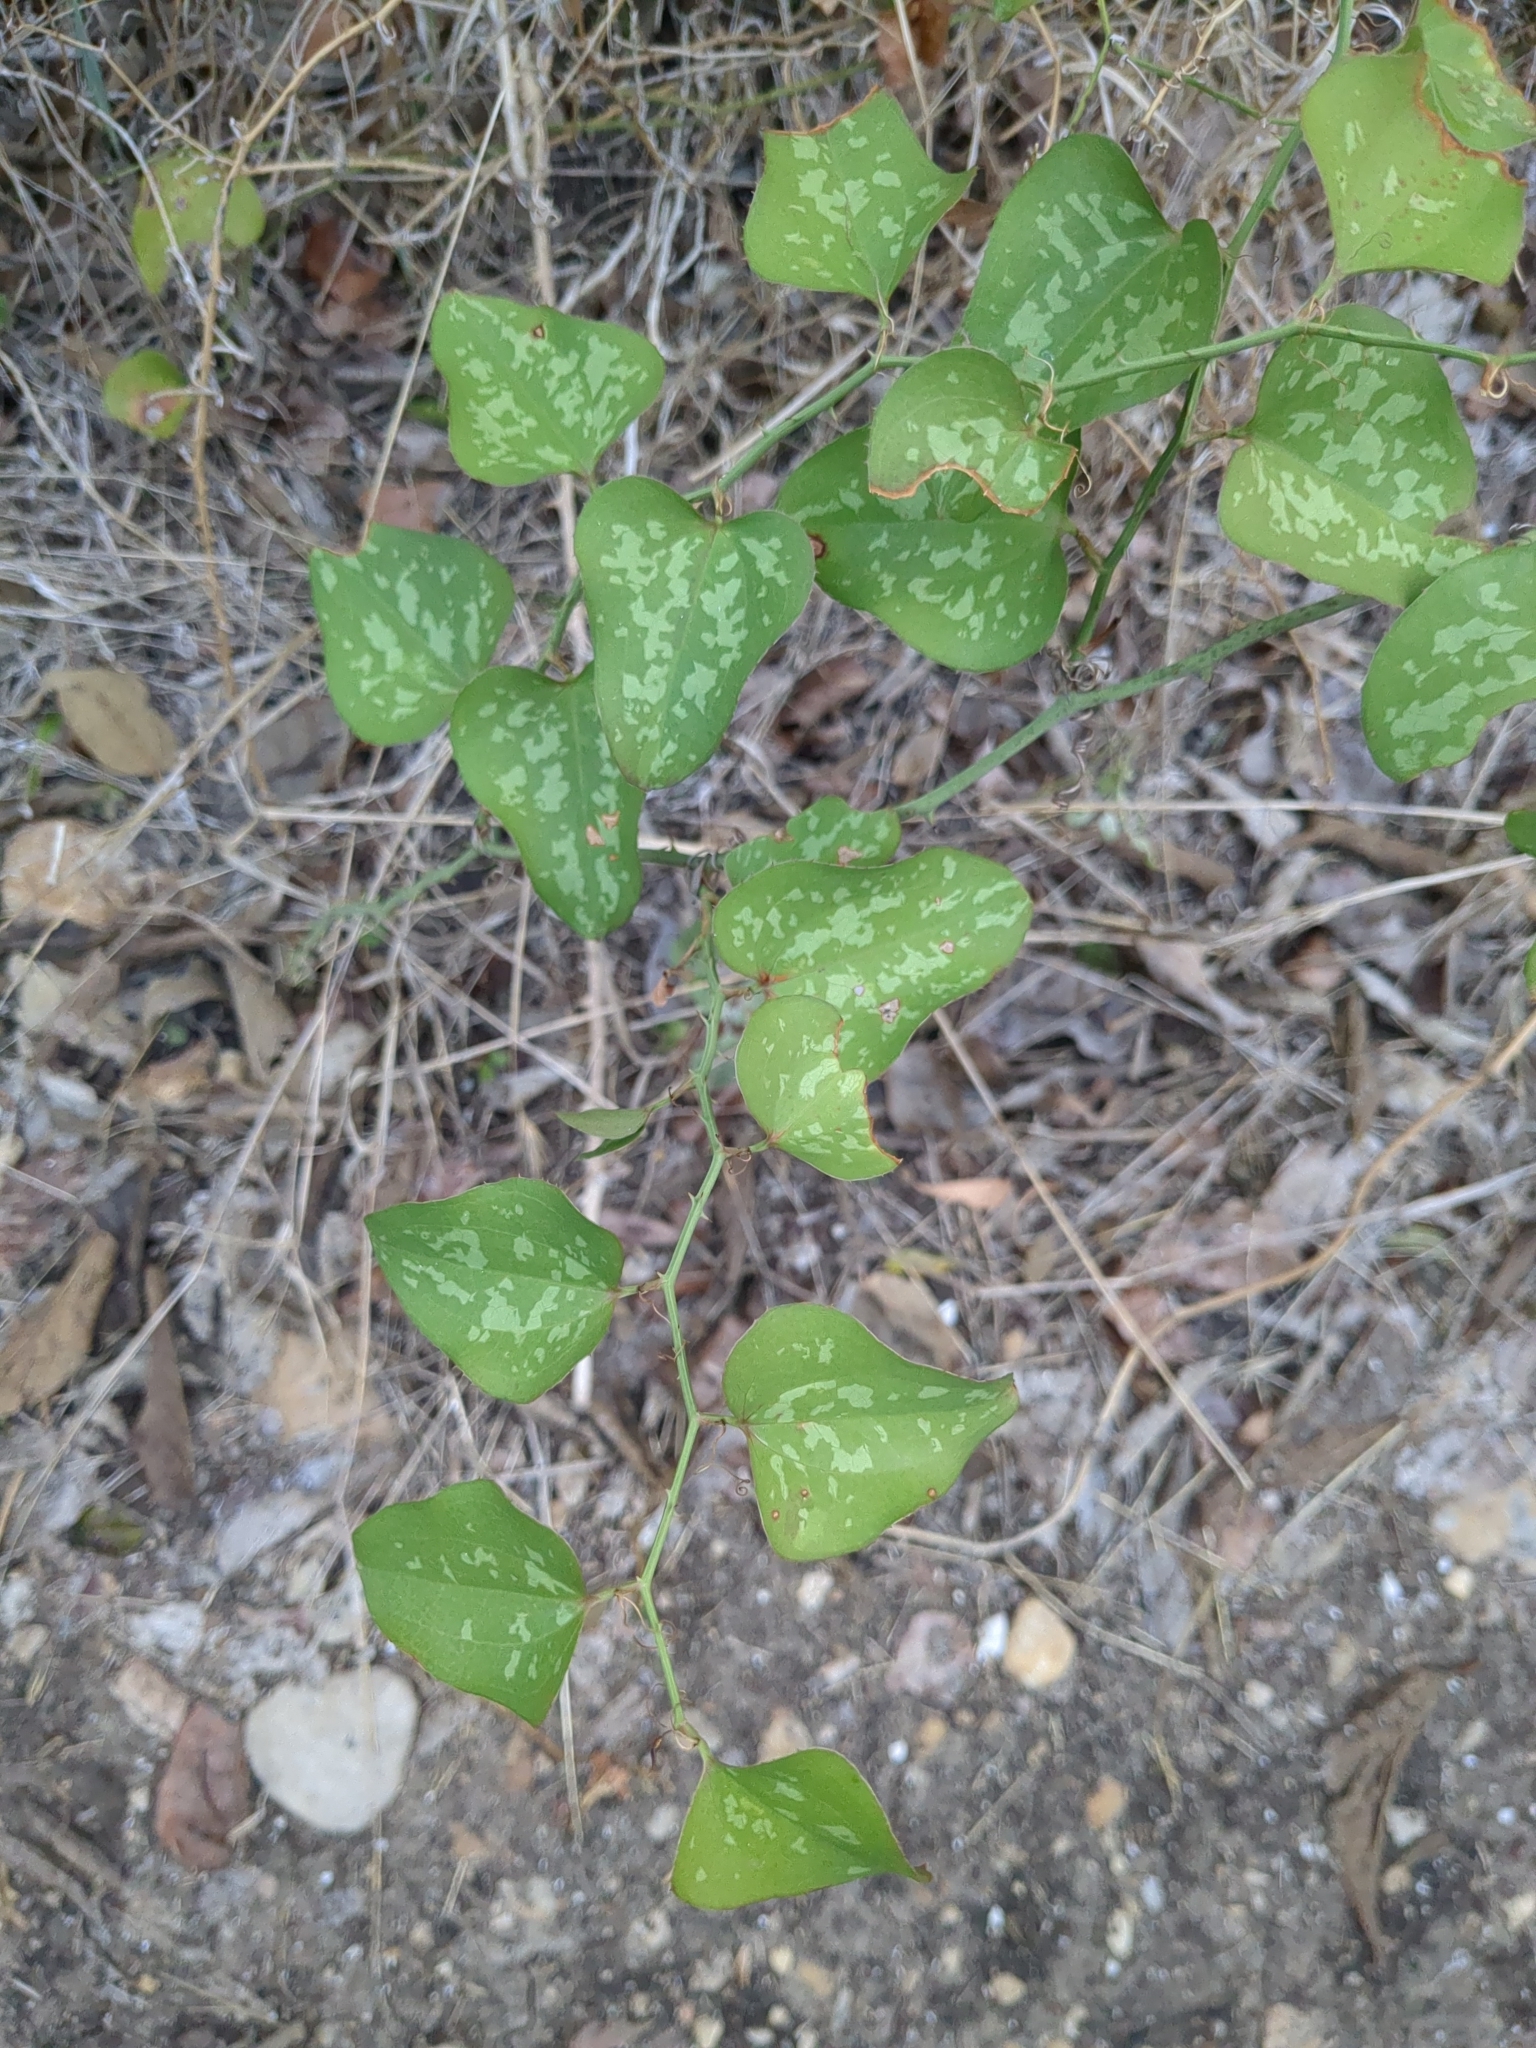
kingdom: Plantae
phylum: Tracheophyta
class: Liliopsida
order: Liliales
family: Smilacaceae
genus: Smilax
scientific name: Smilax bona-nox
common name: Catbrier
